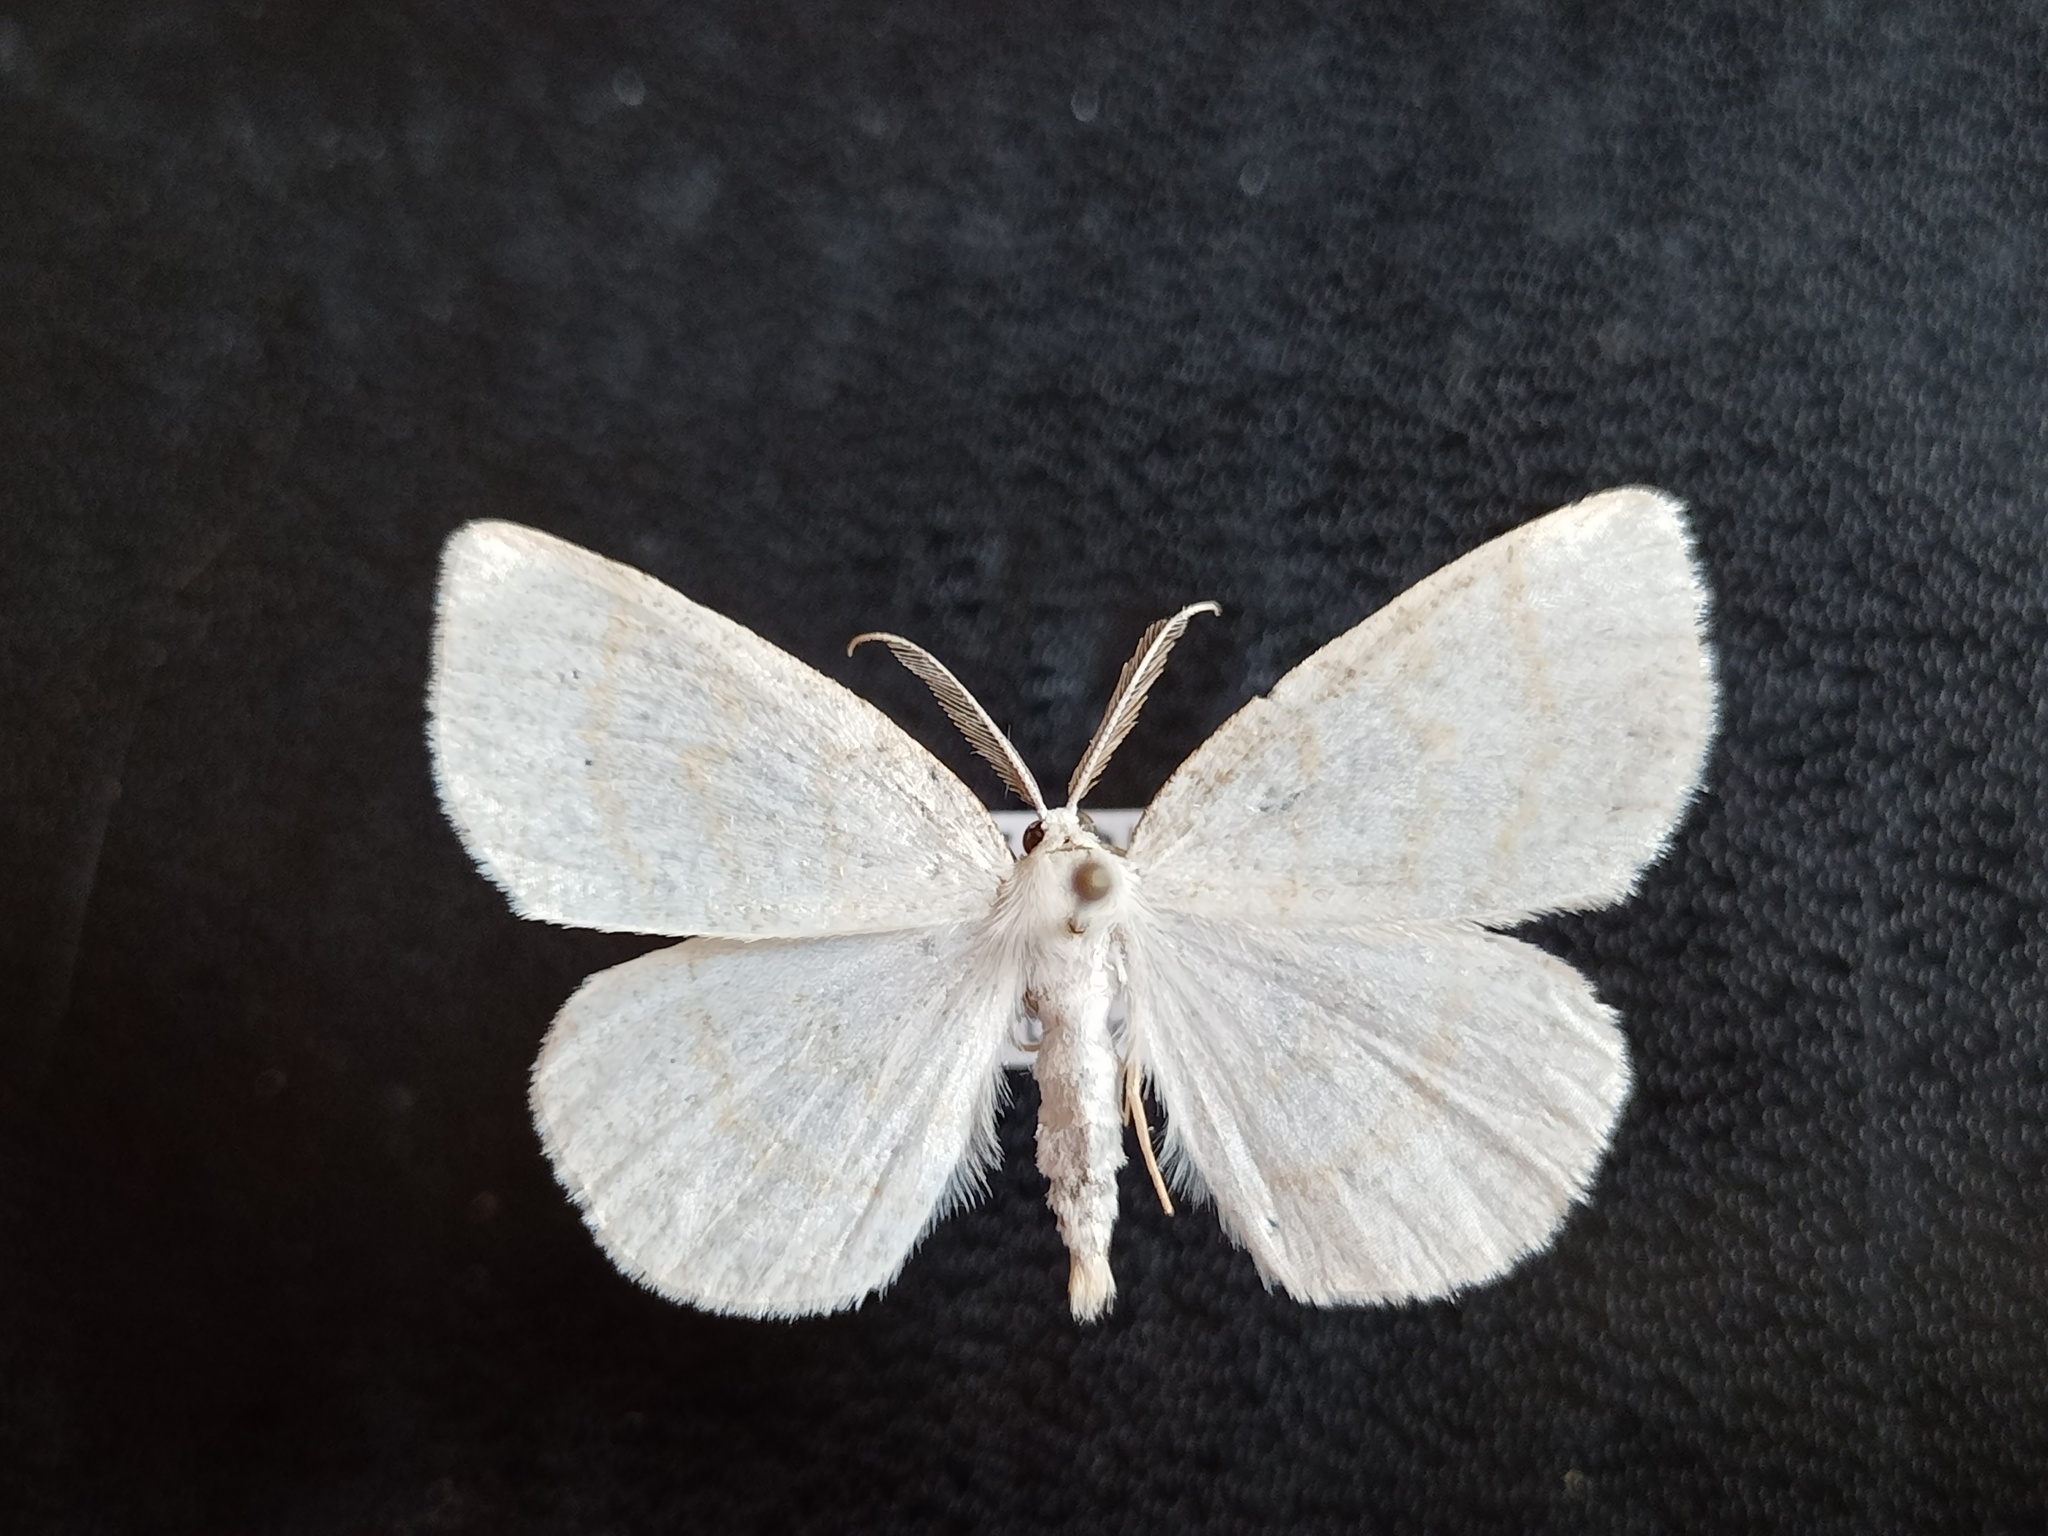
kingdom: Animalia
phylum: Arthropoda
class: Insecta
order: Lepidoptera
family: Geometridae
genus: Cabera
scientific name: Cabera exanthemata
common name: Common wave
